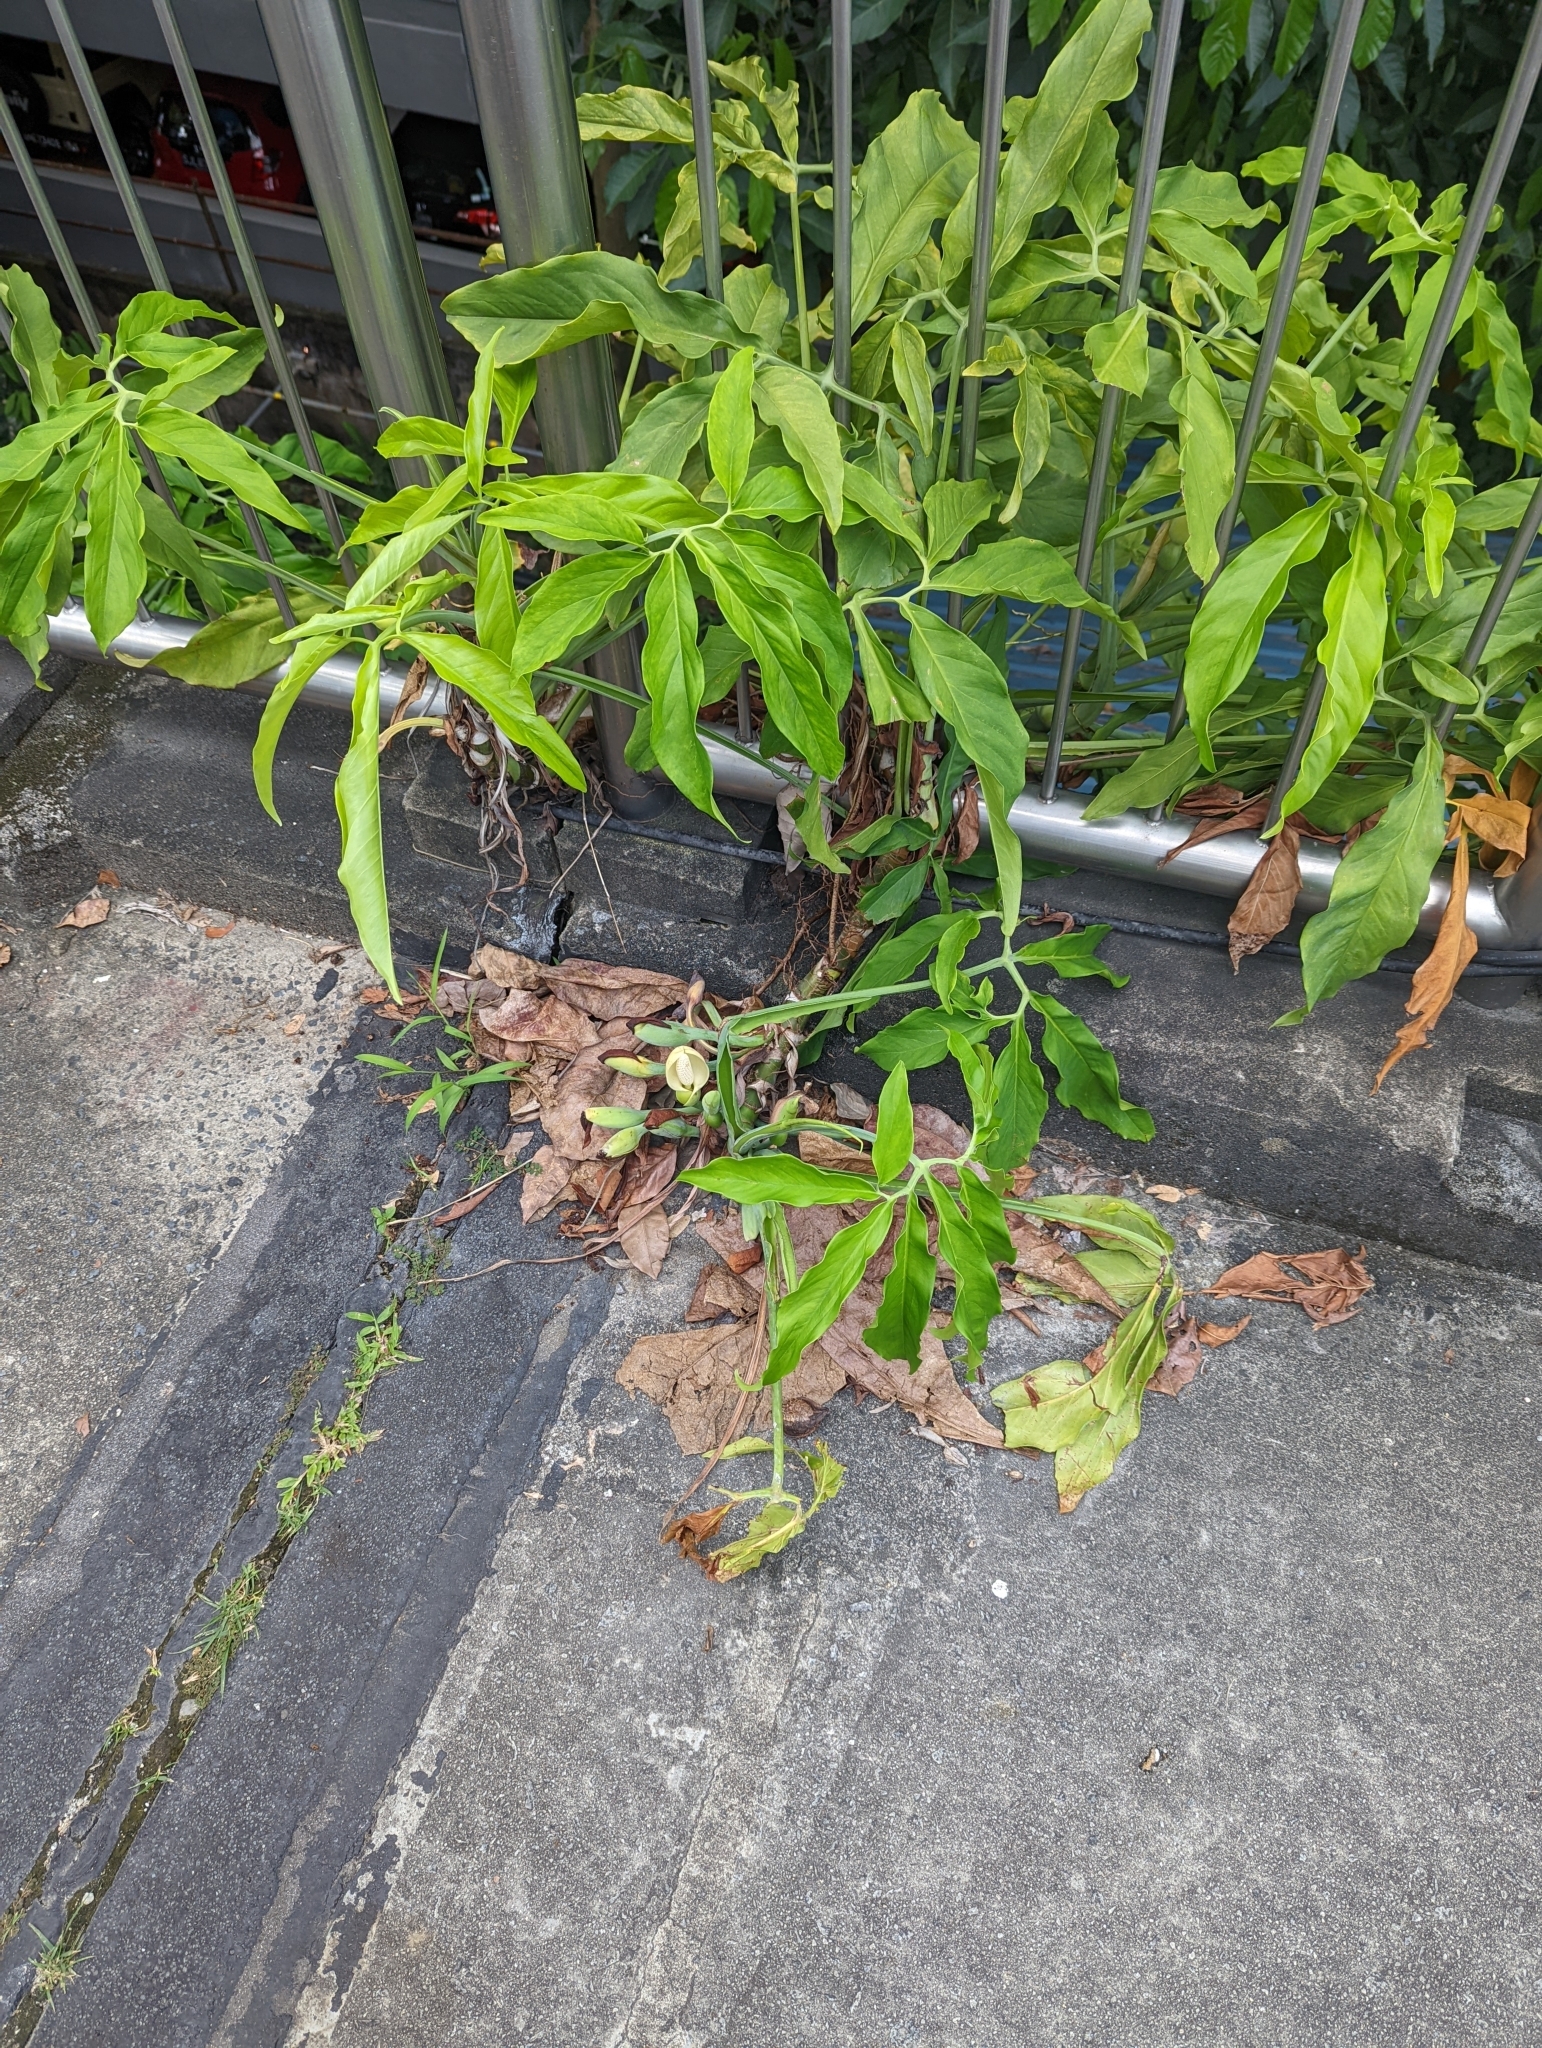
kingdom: Plantae
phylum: Tracheophyta
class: Liliopsida
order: Alismatales
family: Araceae
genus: Syngonium
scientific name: Syngonium angustatum
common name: Fivefingers
